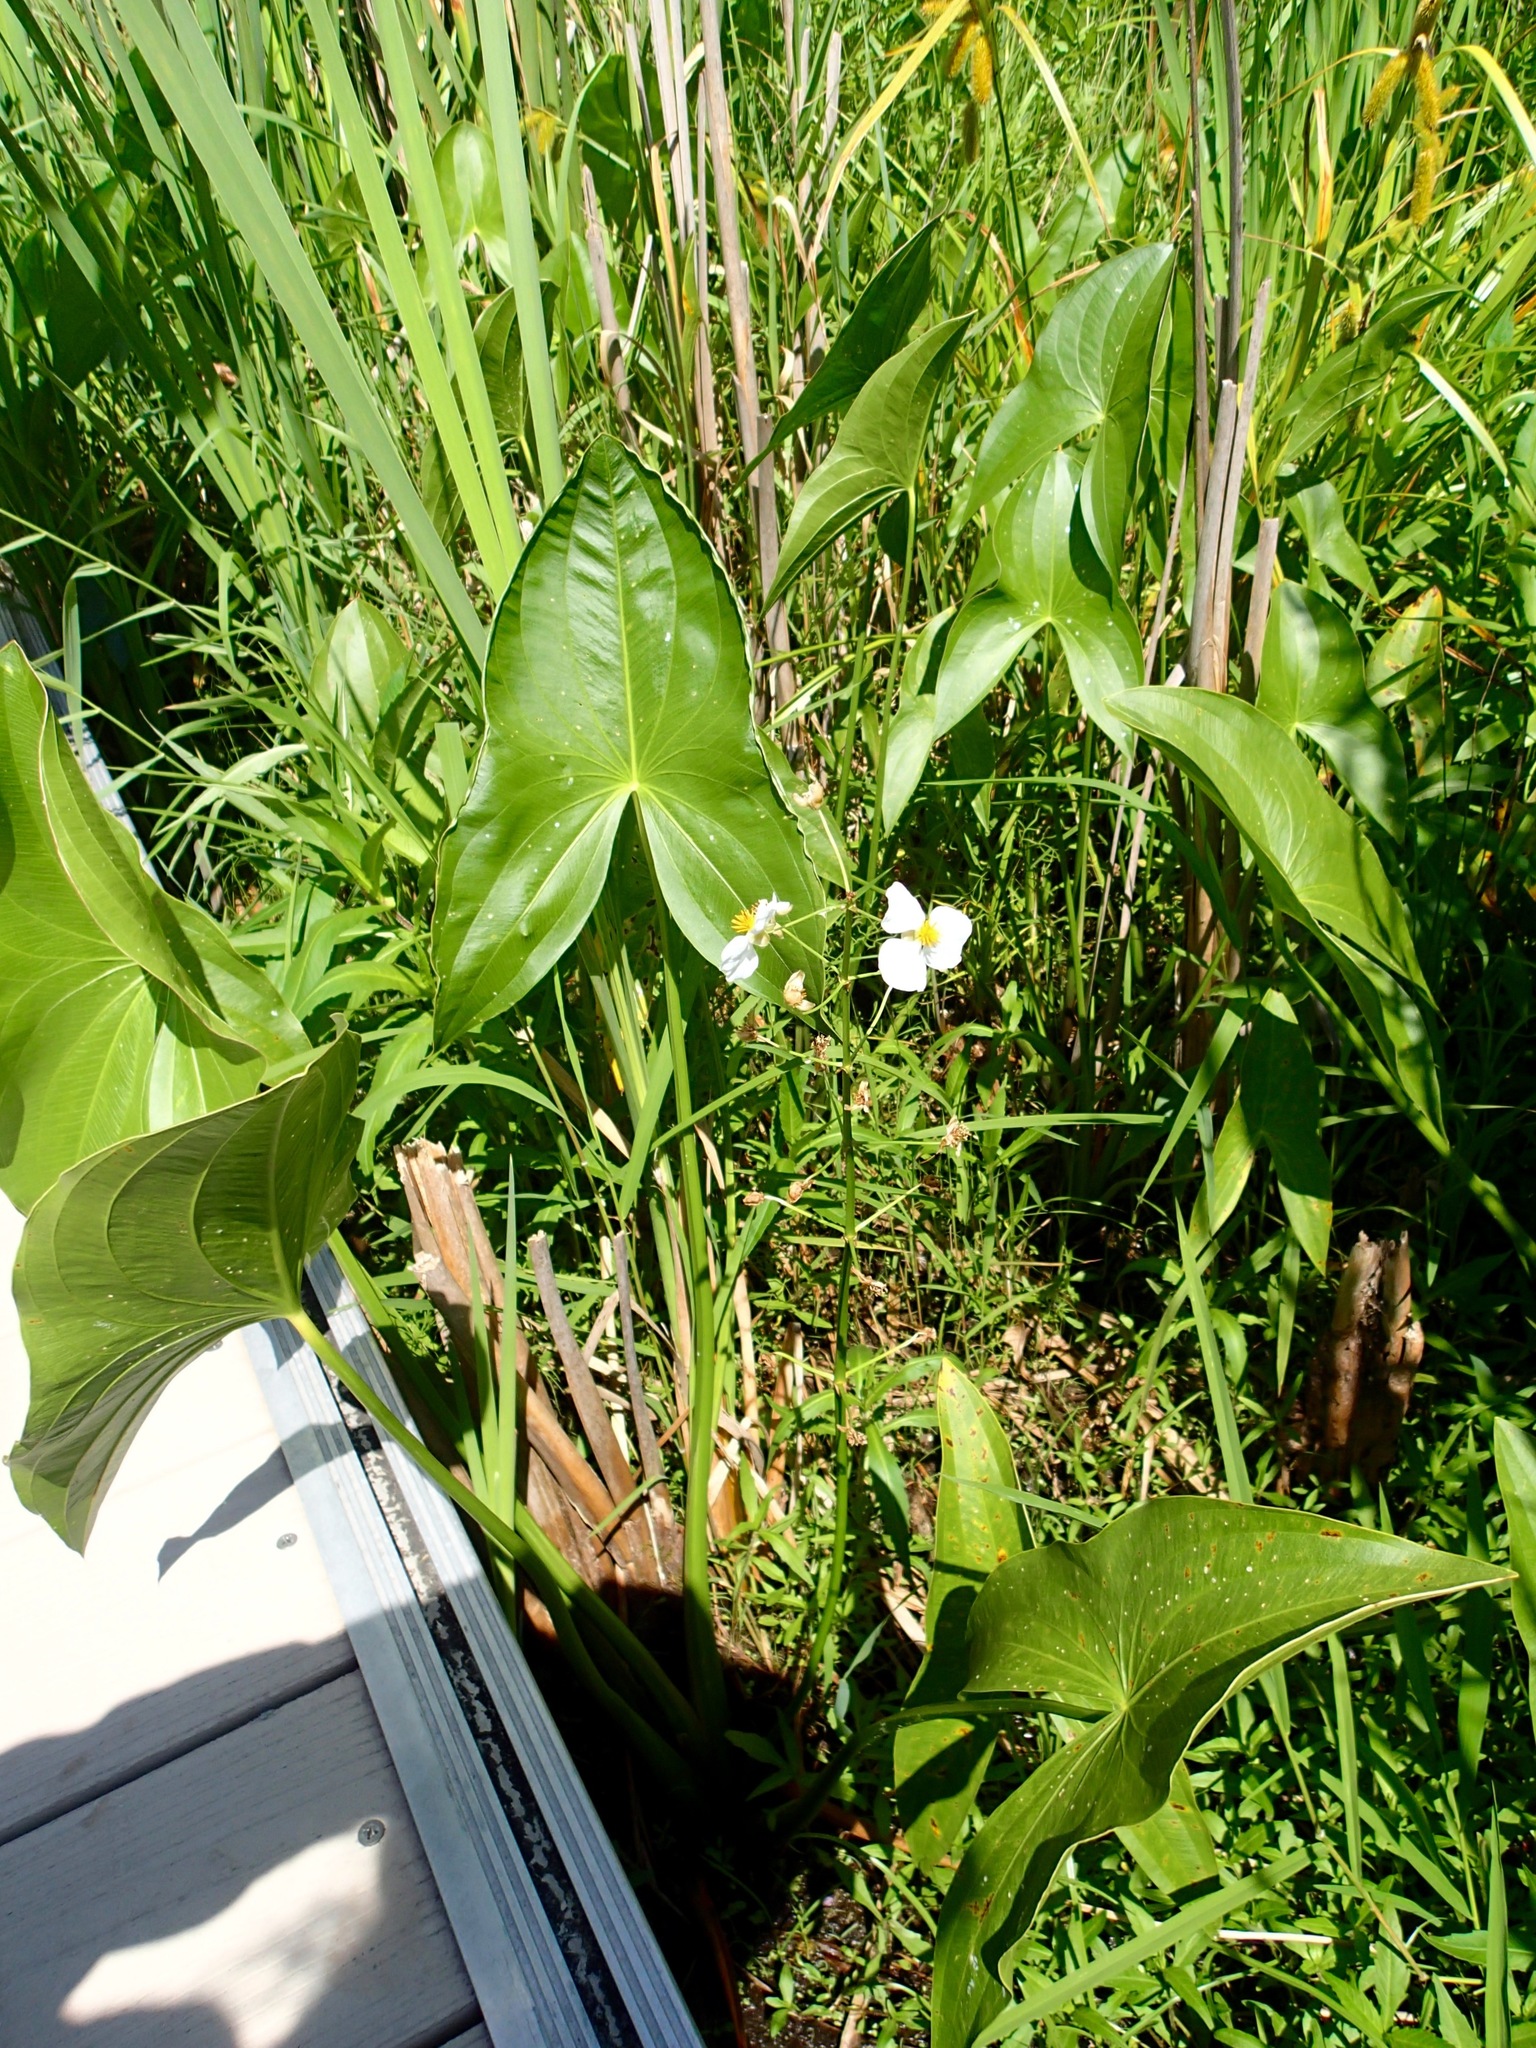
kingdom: Plantae
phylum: Tracheophyta
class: Liliopsida
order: Alismatales
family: Alismataceae
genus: Sagittaria
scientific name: Sagittaria latifolia
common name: Duck-potato
